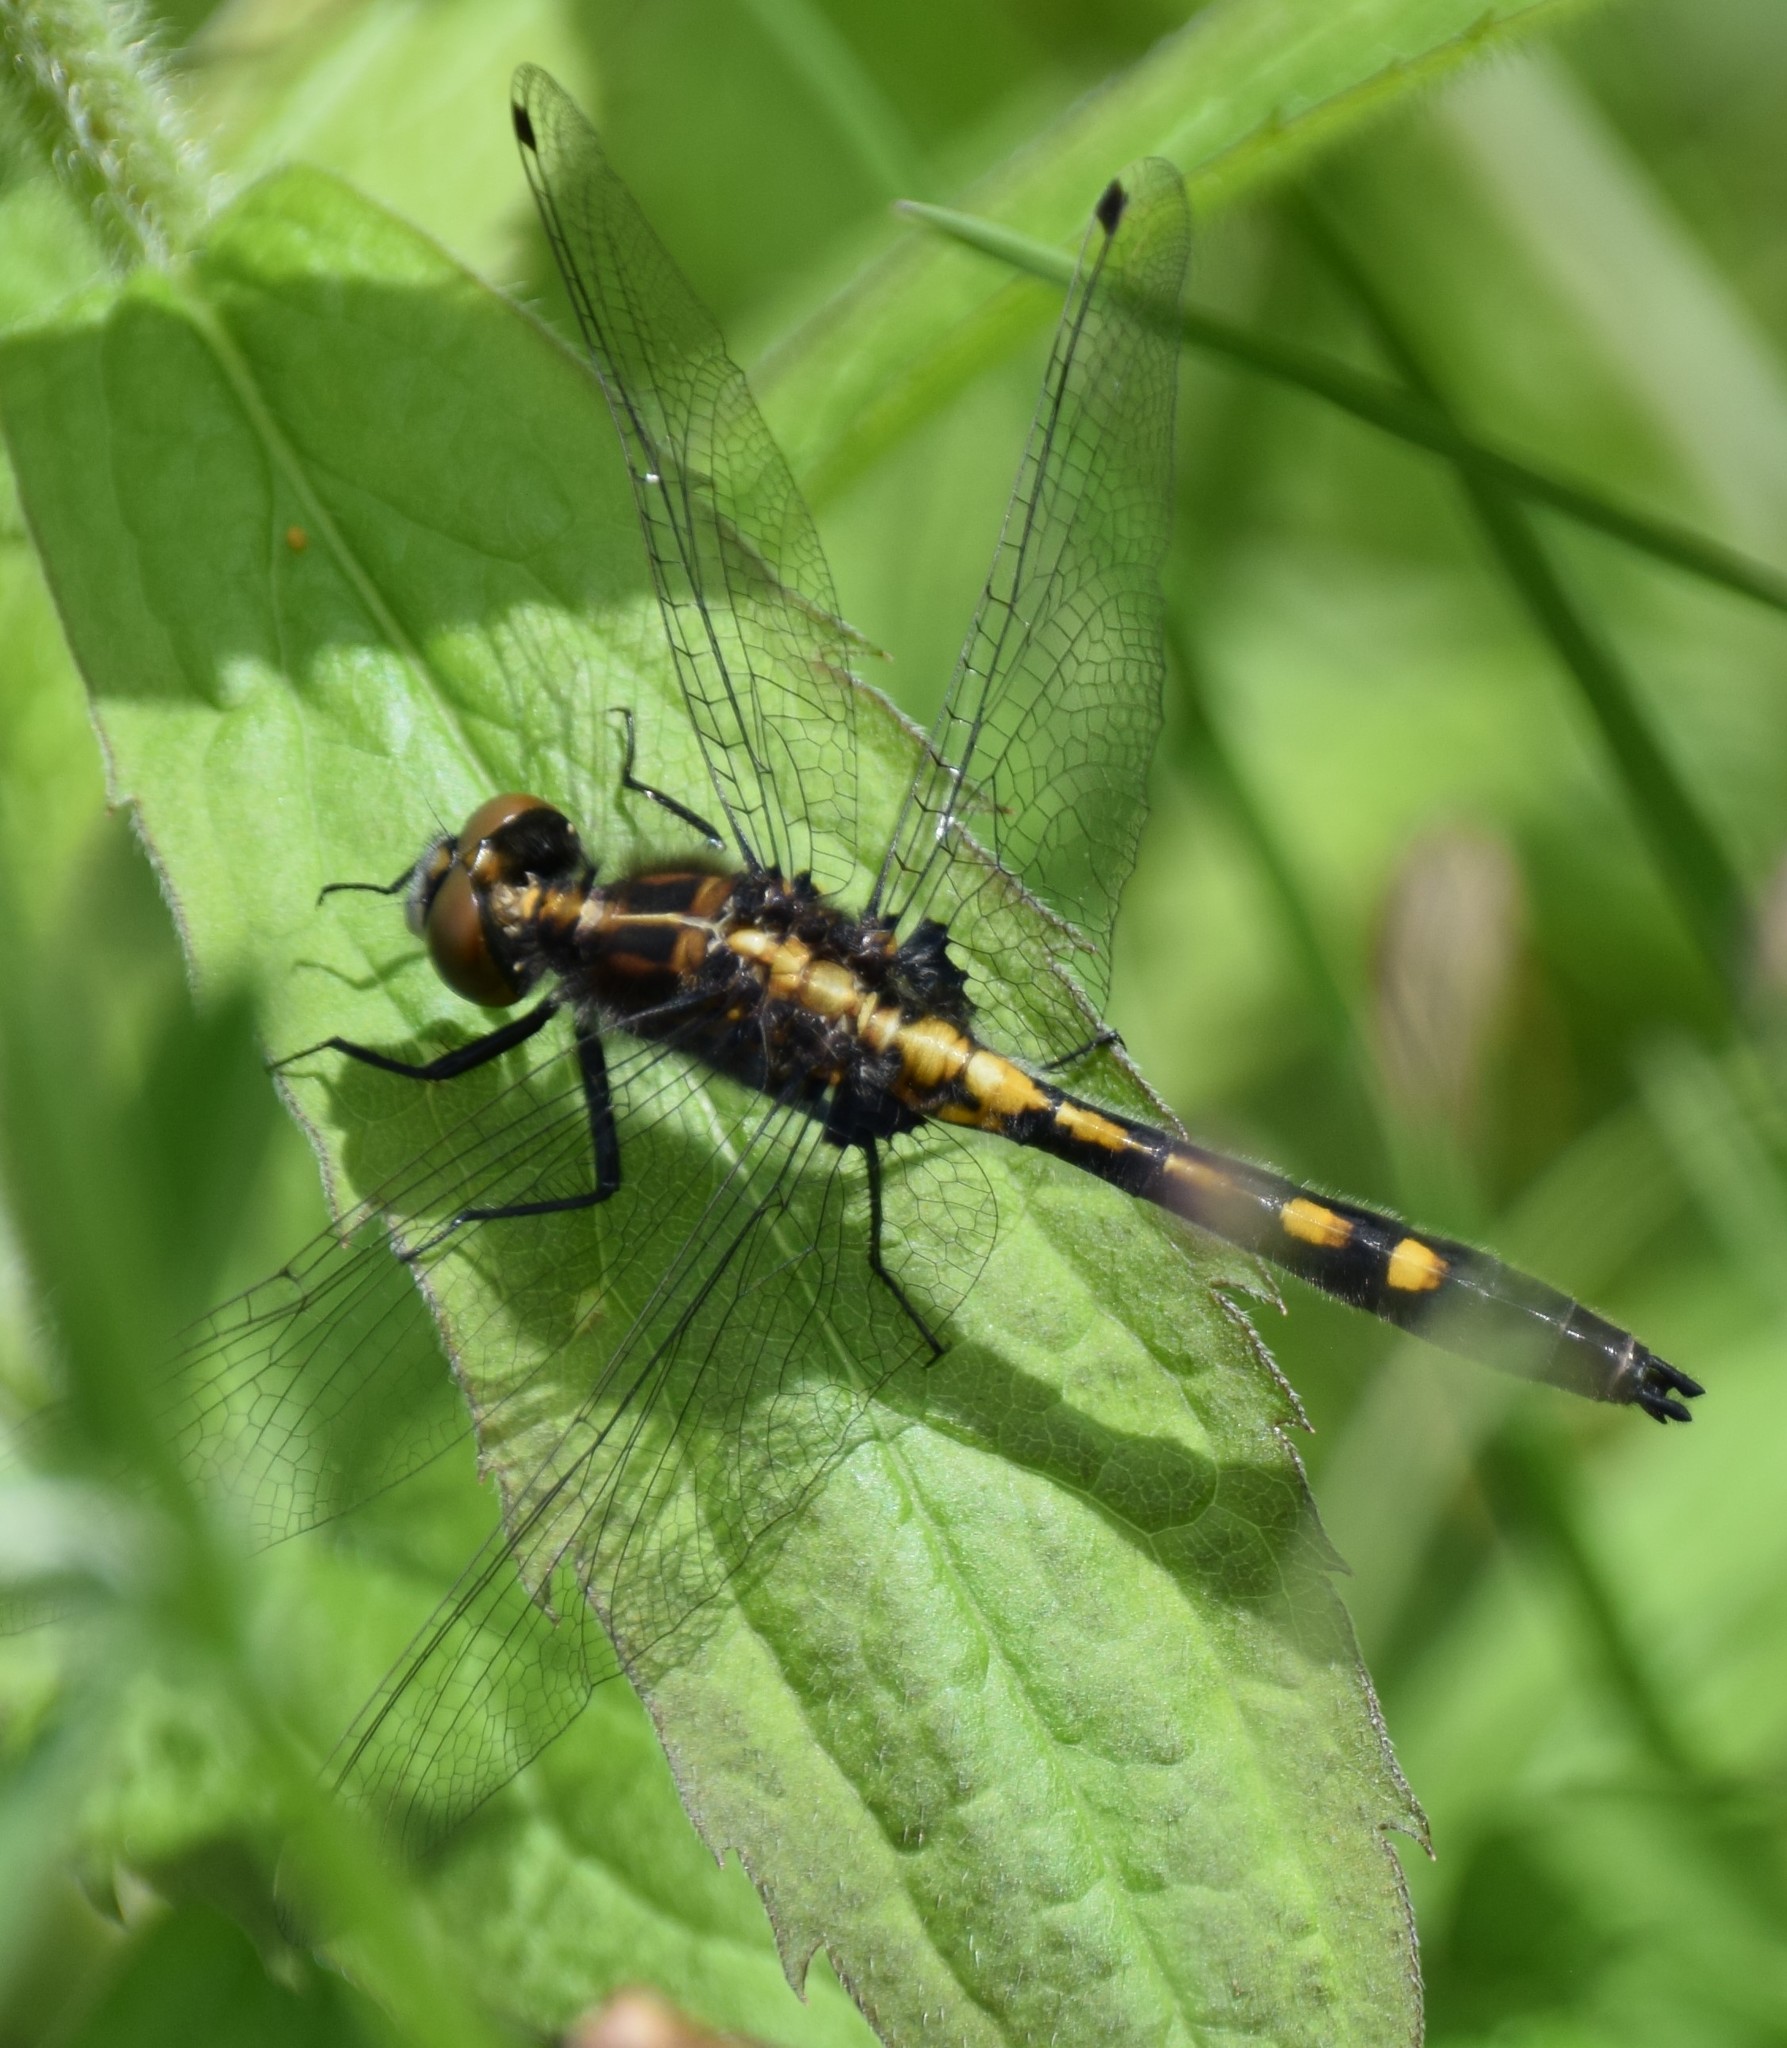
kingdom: Animalia
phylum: Arthropoda
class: Insecta
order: Odonata
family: Libellulidae
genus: Leucorrhinia
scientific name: Leucorrhinia intacta
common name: Dot-tailed whiteface
